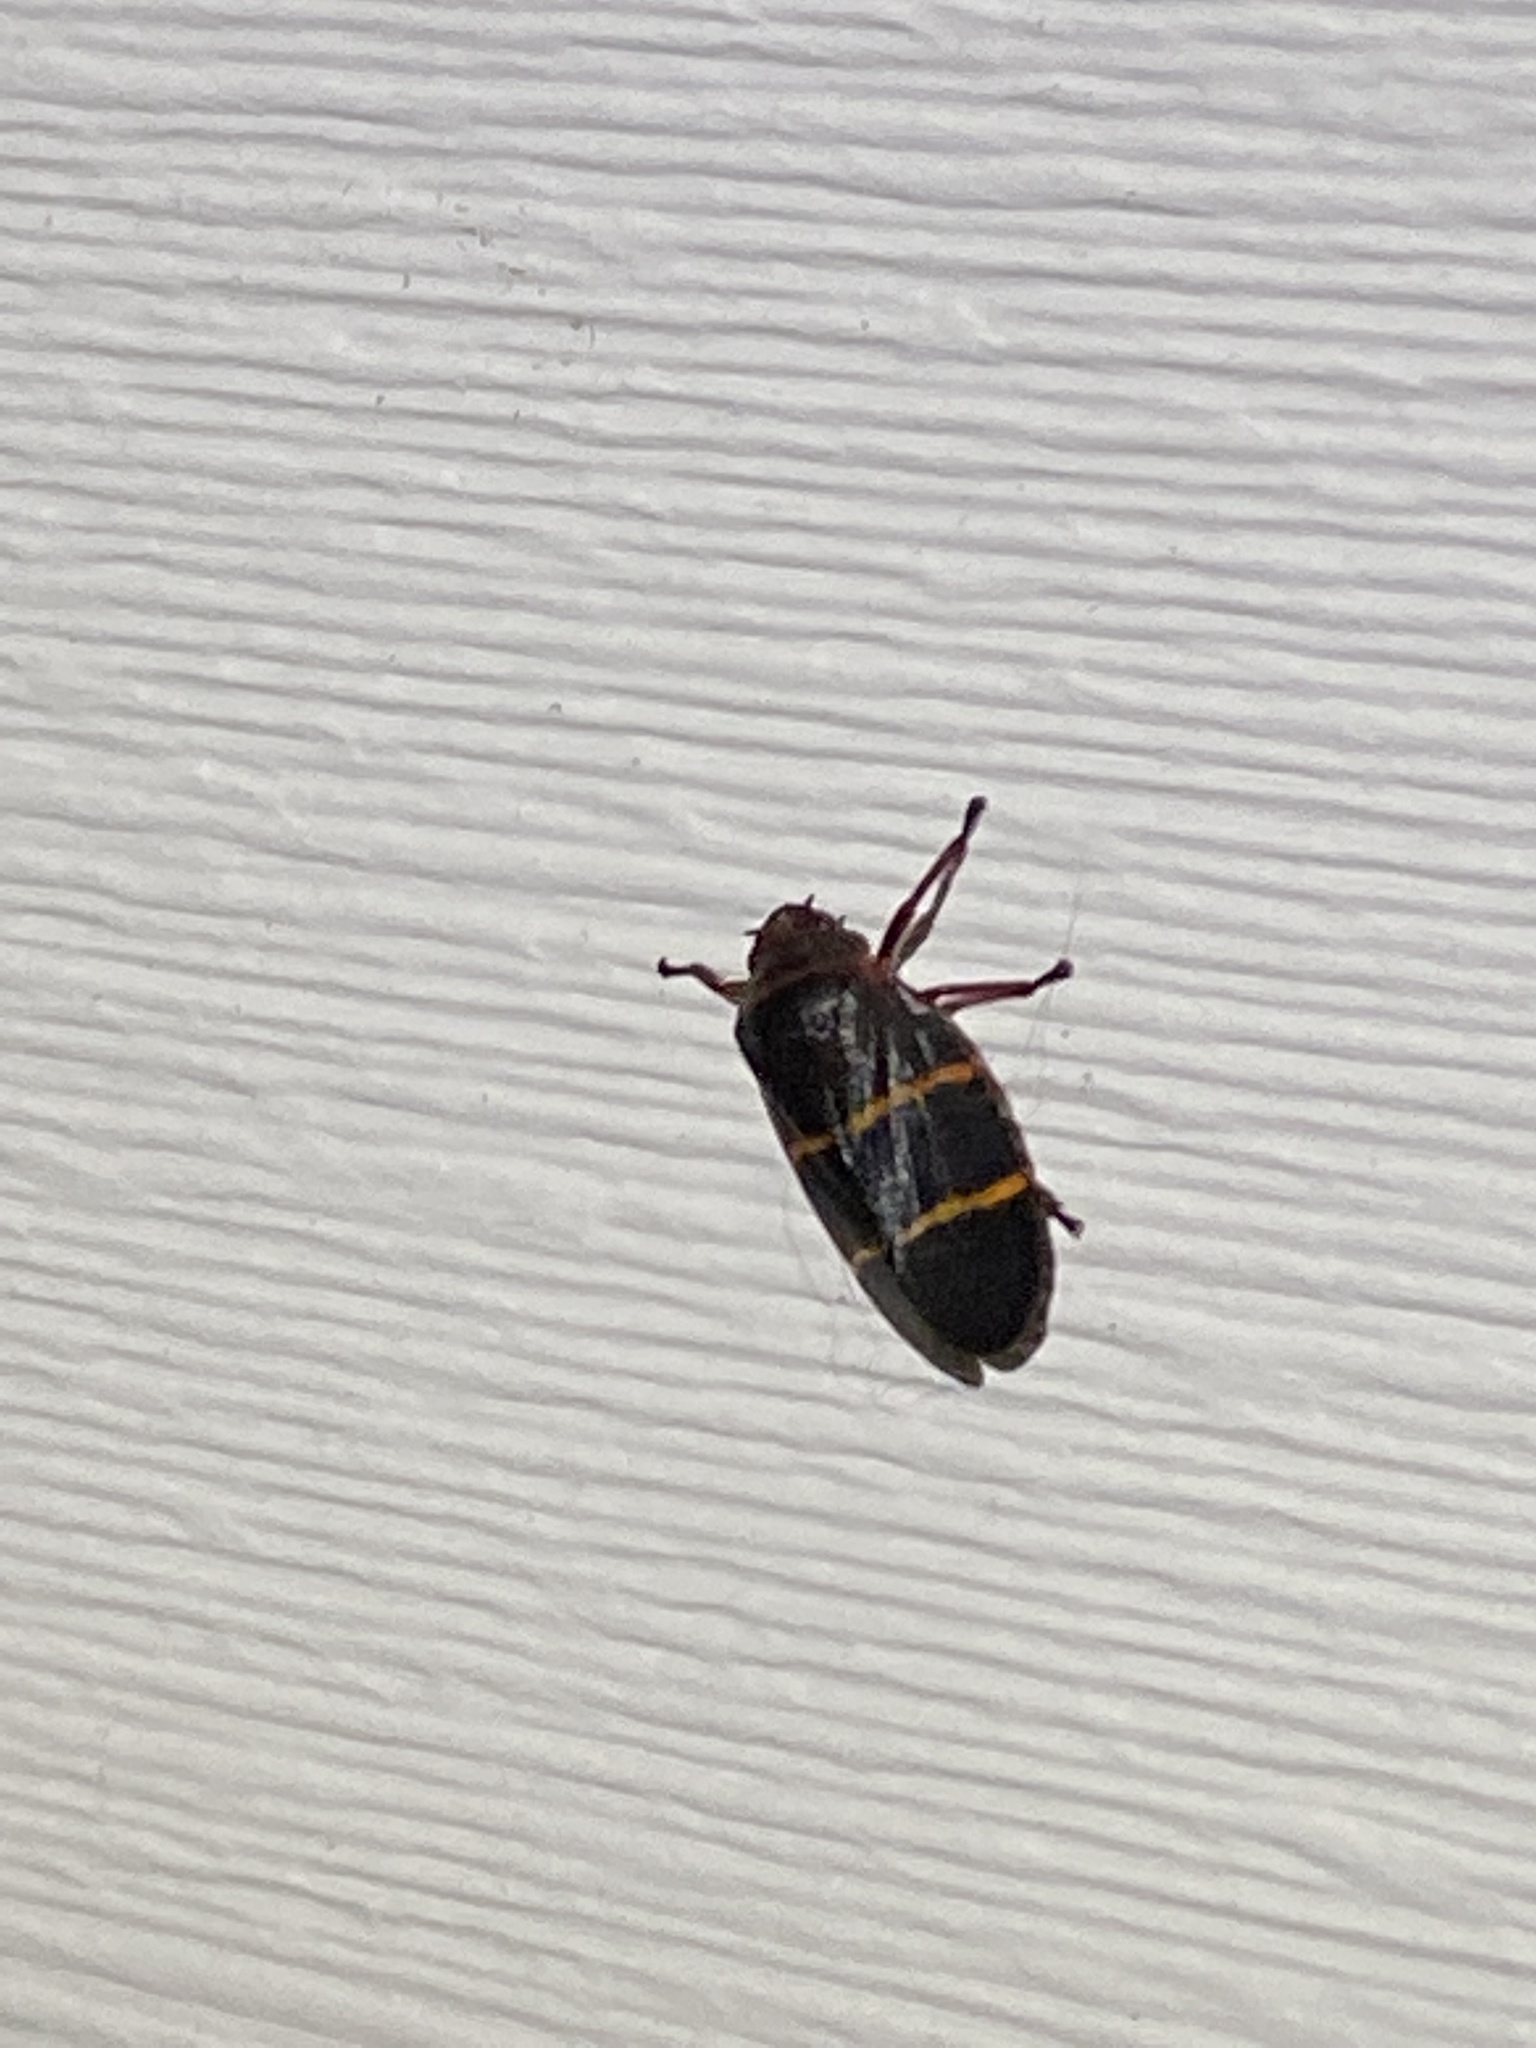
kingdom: Animalia
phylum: Arthropoda
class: Insecta
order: Hemiptera
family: Cercopidae
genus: Prosapia
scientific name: Prosapia bicincta
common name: Twolined spittlebug
